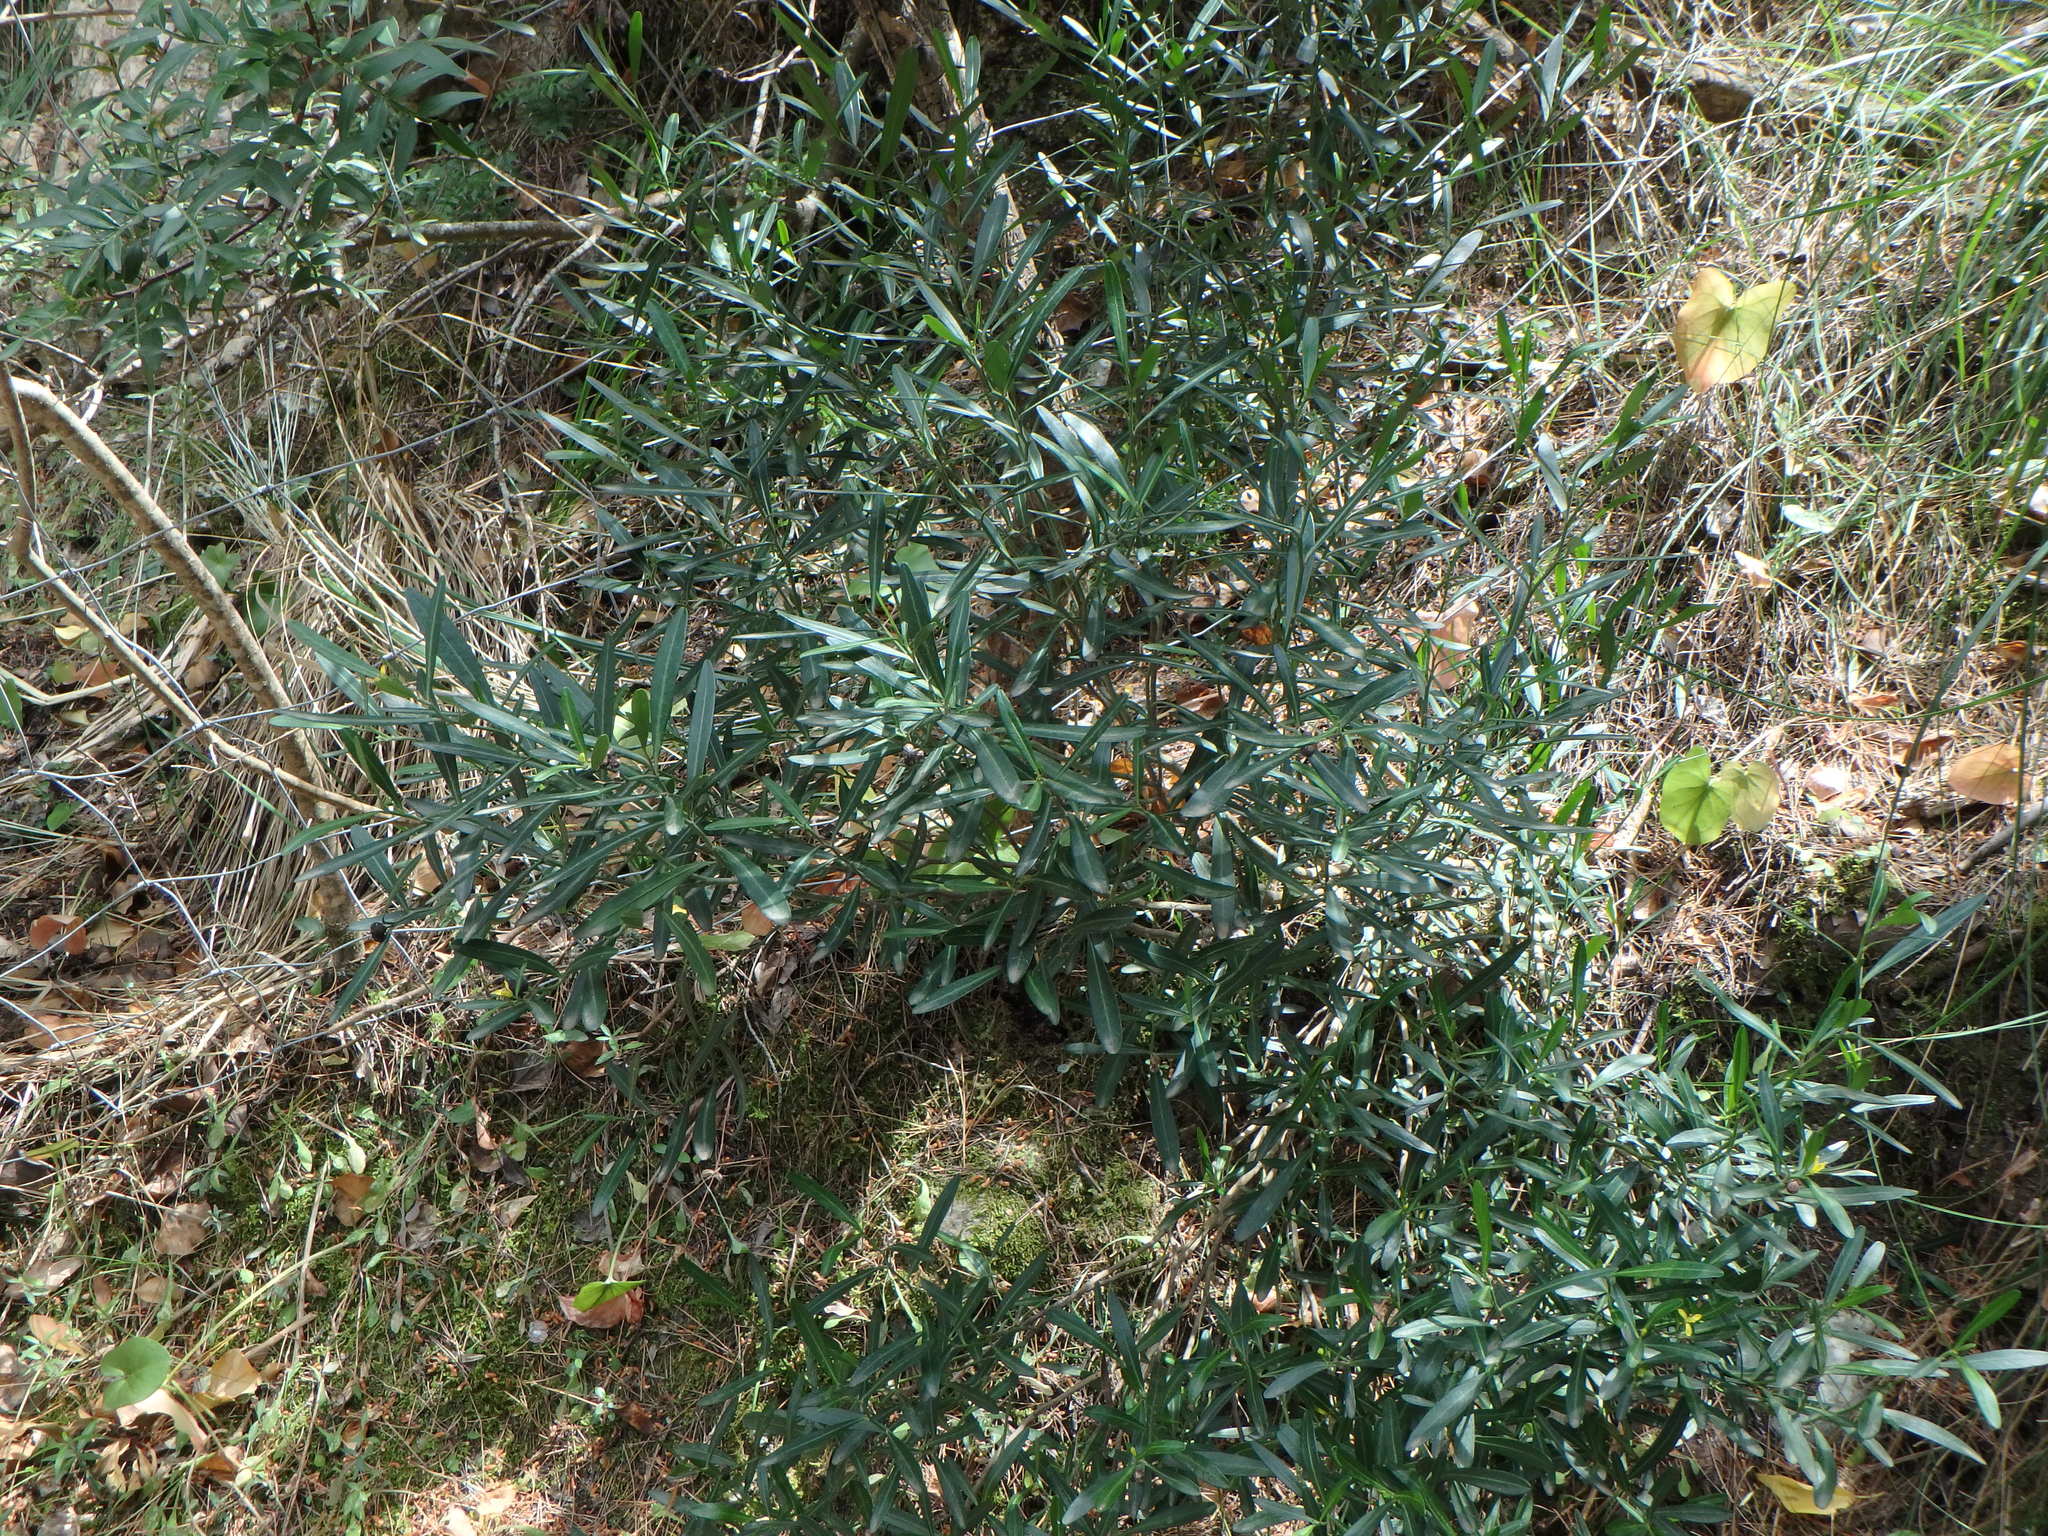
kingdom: Plantae
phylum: Tracheophyta
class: Magnoliopsida
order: Sapindales
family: Rutaceae
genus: Cneorum
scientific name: Cneorum tricoccon
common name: Spurge olive
